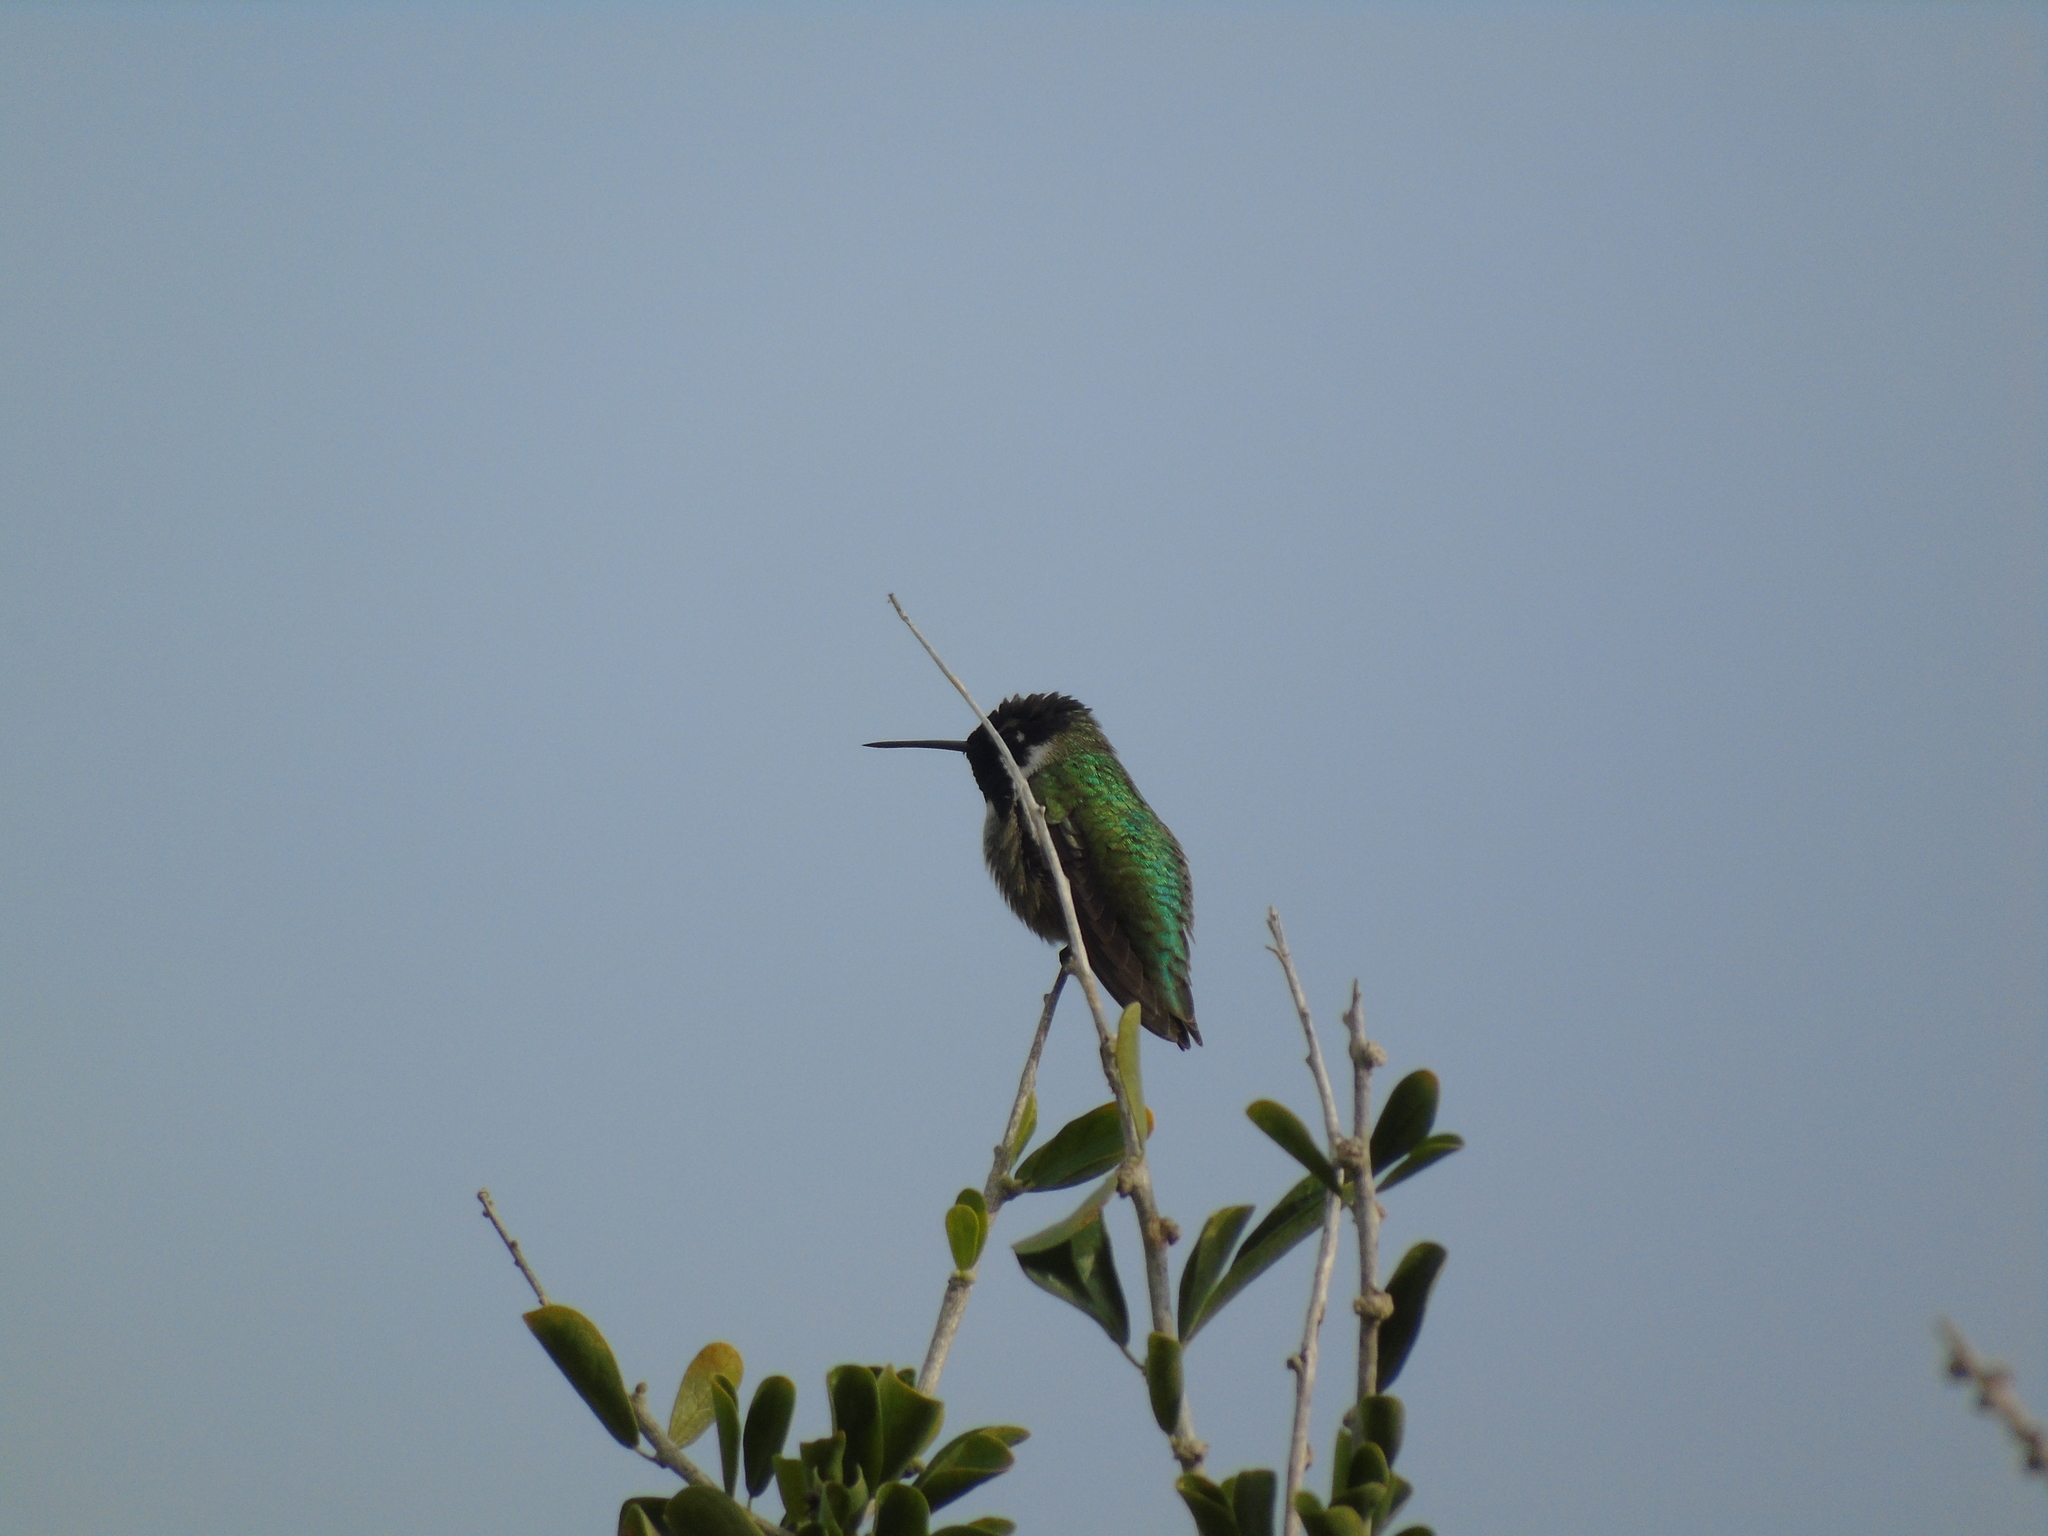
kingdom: Animalia
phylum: Chordata
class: Aves
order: Apodiformes
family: Trochilidae
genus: Calypte
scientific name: Calypte costae
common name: Costa's hummingbird
